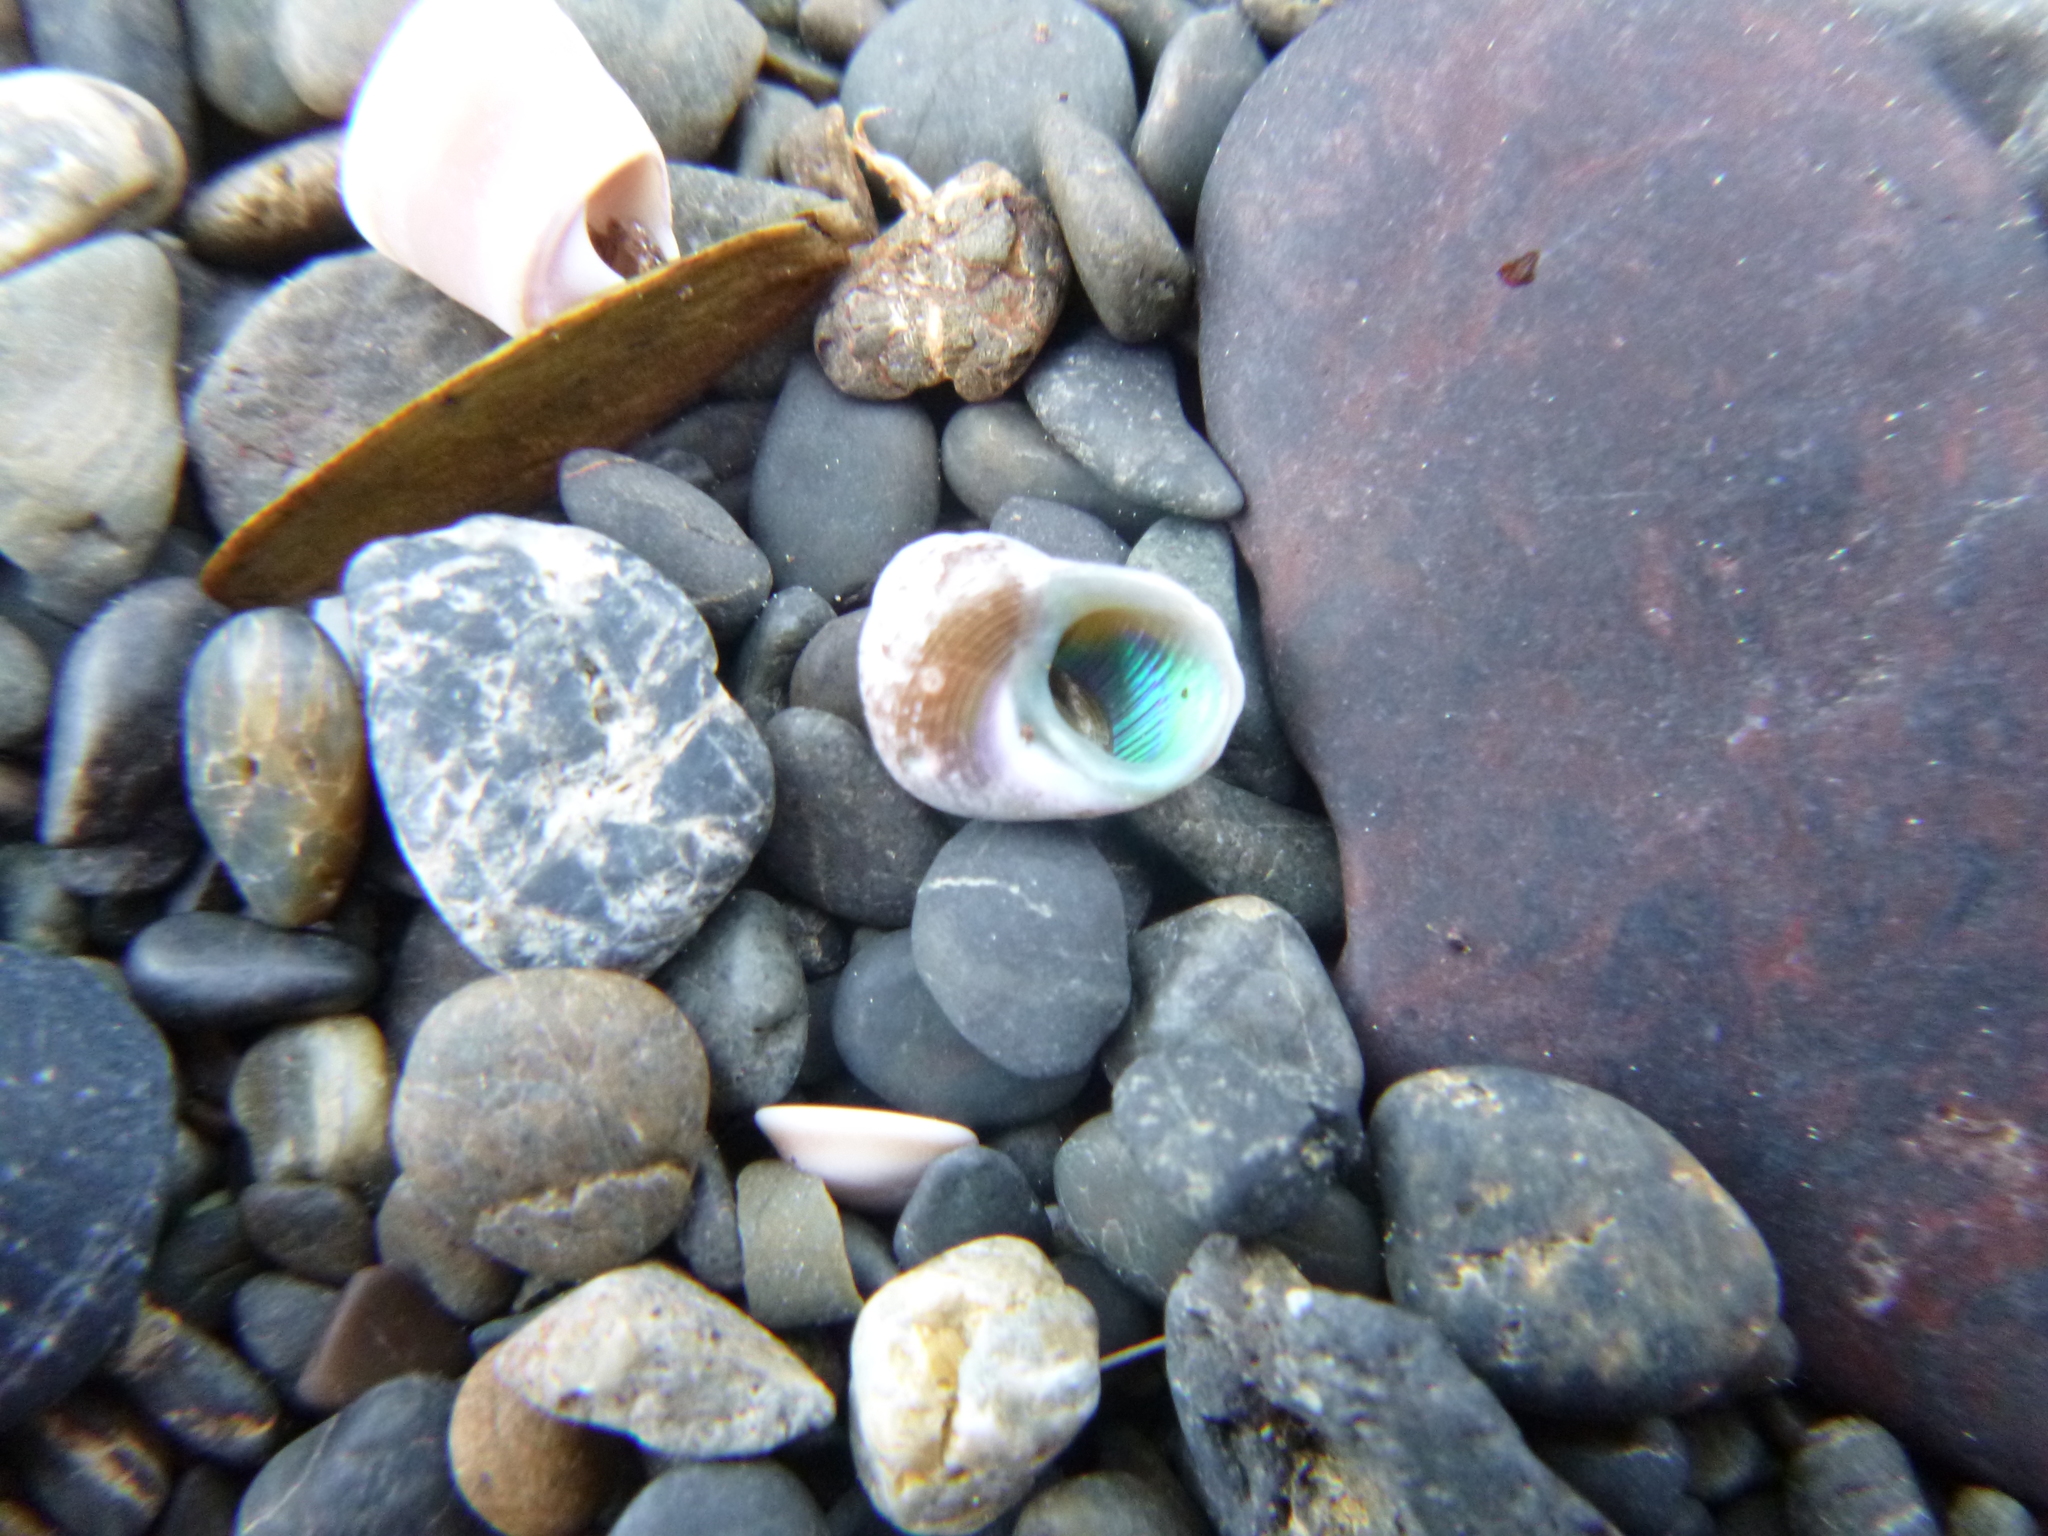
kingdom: Animalia
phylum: Mollusca
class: Gastropoda
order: Trochida
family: Trochidae
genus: Cantharidus
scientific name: Cantharidus dilatatus
